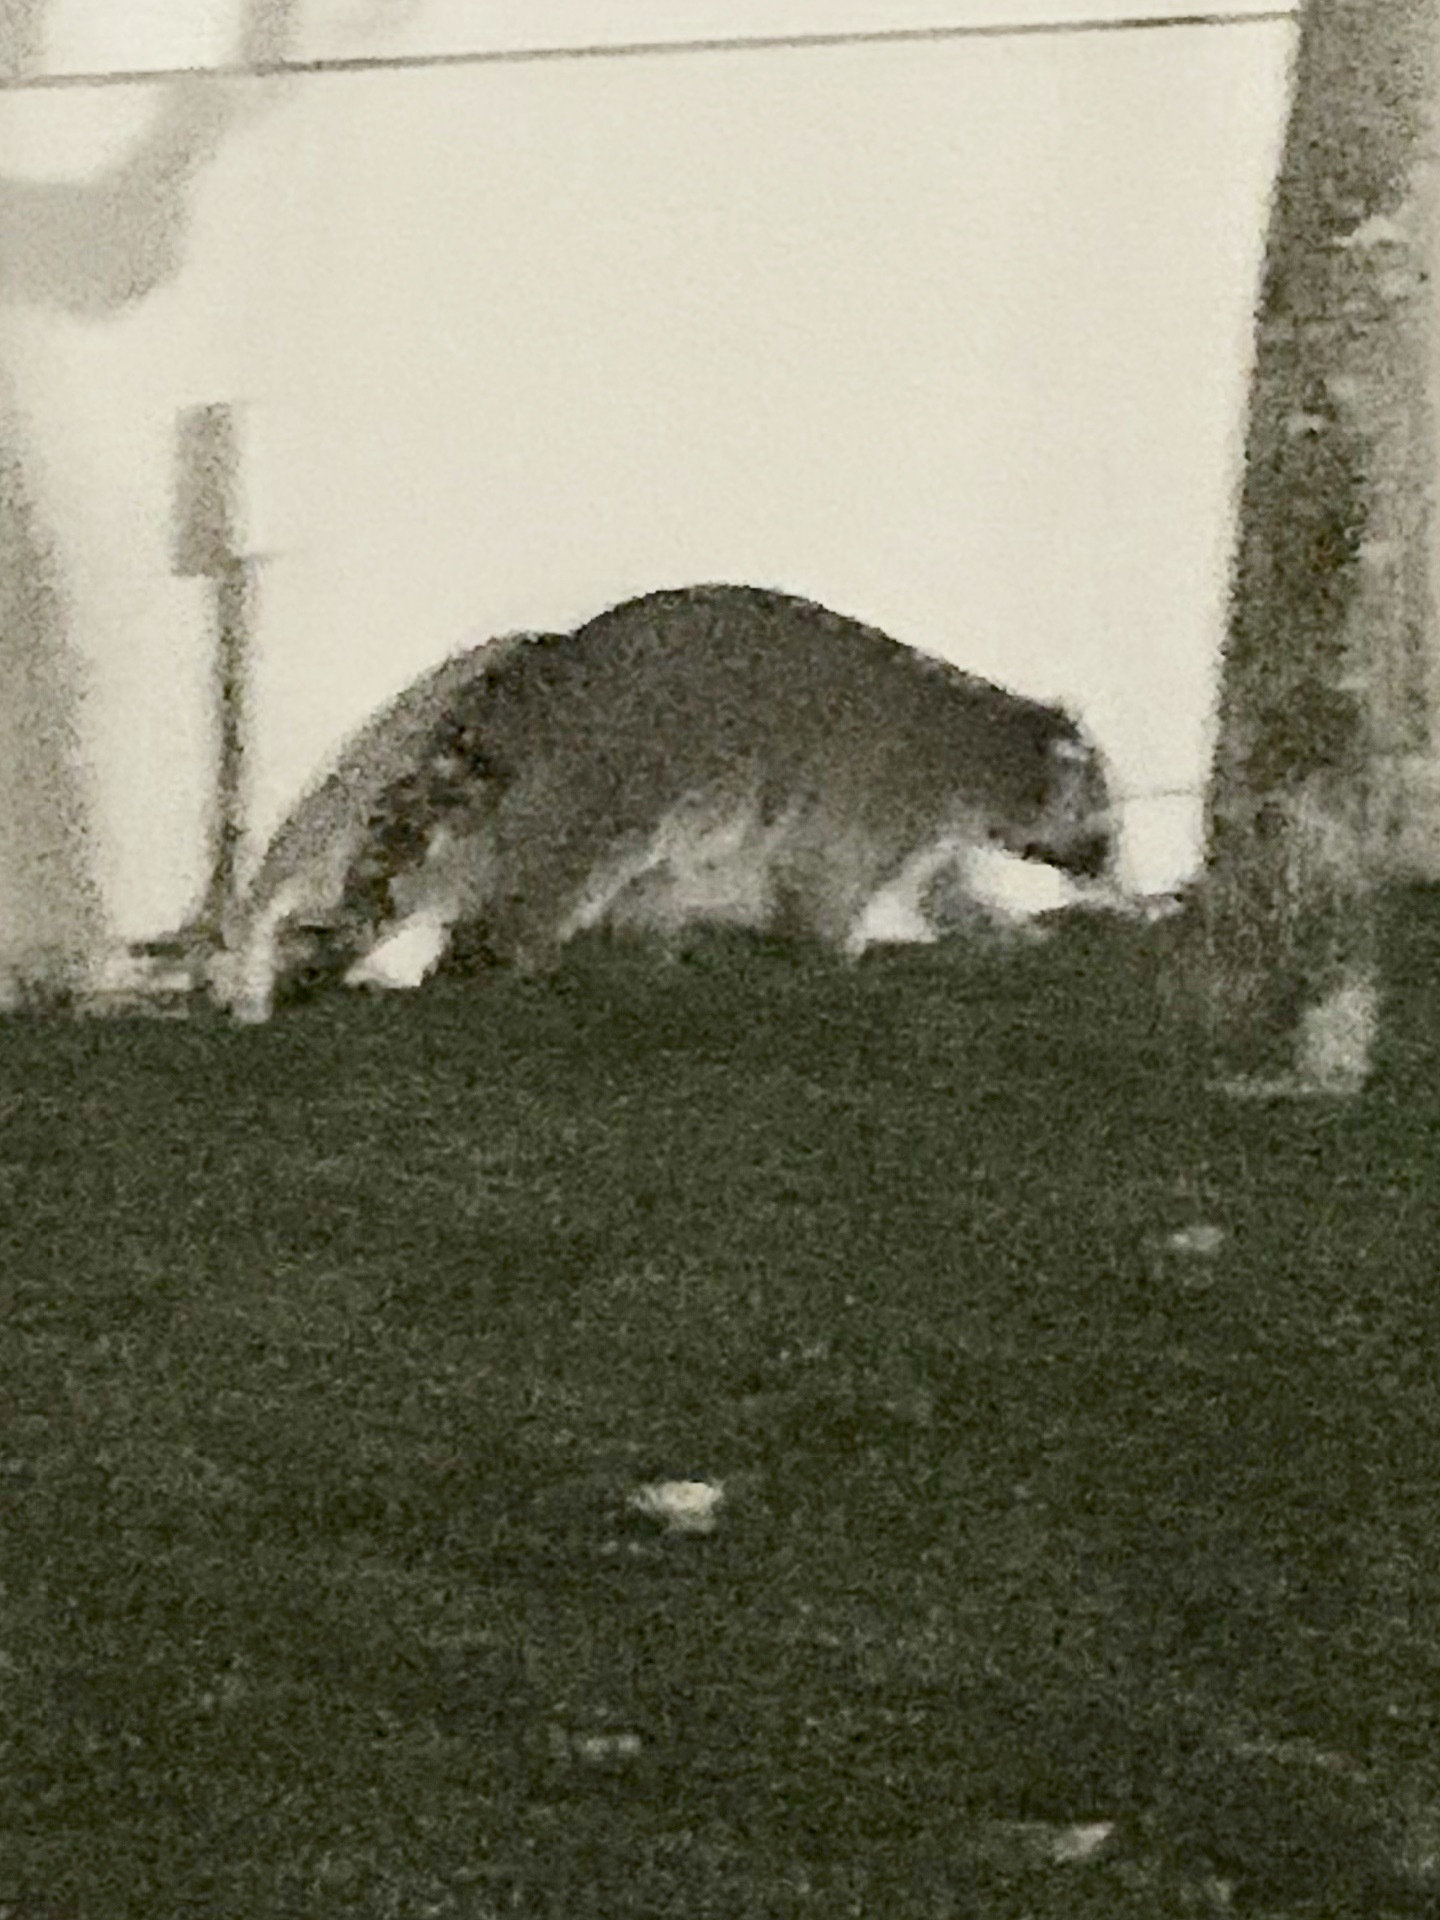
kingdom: Animalia
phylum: Chordata
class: Mammalia
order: Carnivora
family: Procyonidae
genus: Procyon
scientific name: Procyon lotor
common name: Raccoon
